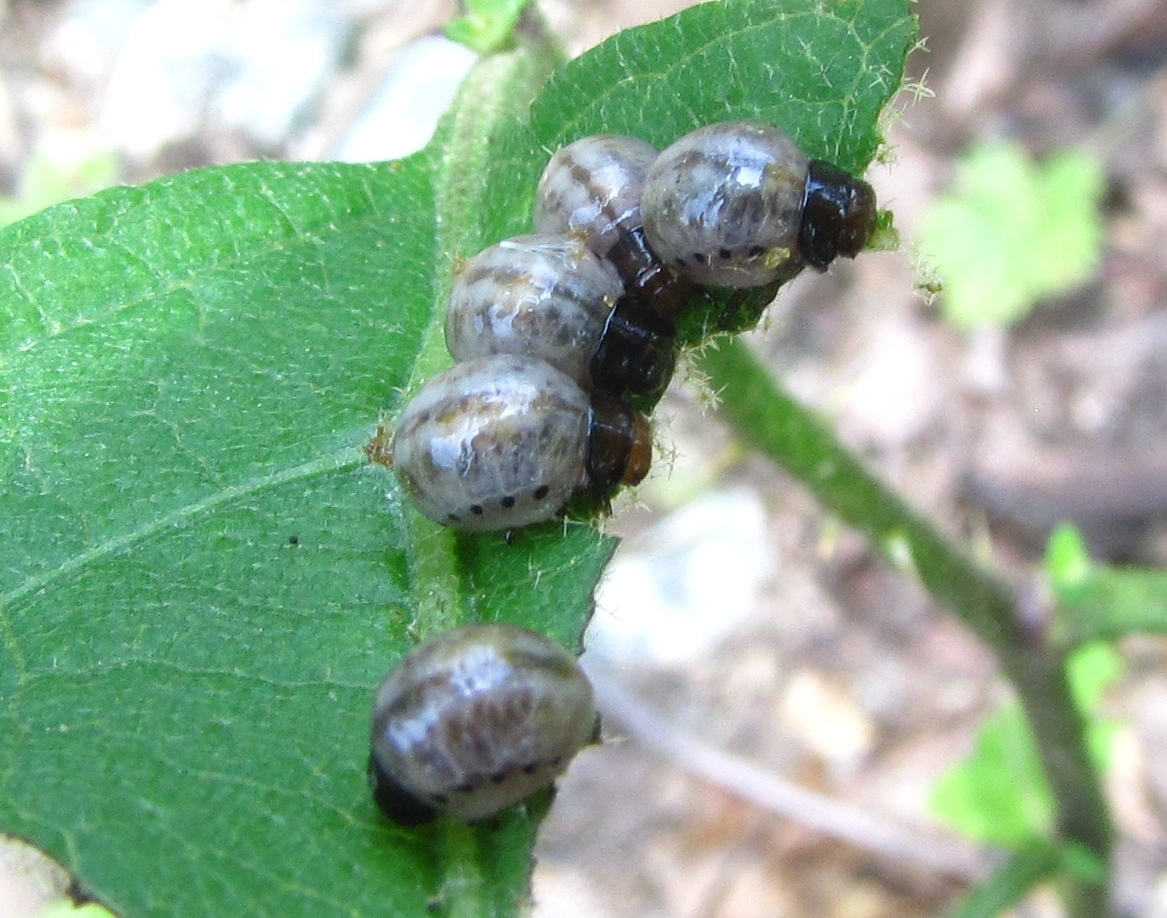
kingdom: Animalia
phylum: Arthropoda
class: Insecta
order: Coleoptera
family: Chrysomelidae
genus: Leptinotarsa
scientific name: Leptinotarsa juncta
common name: False potato beetle
